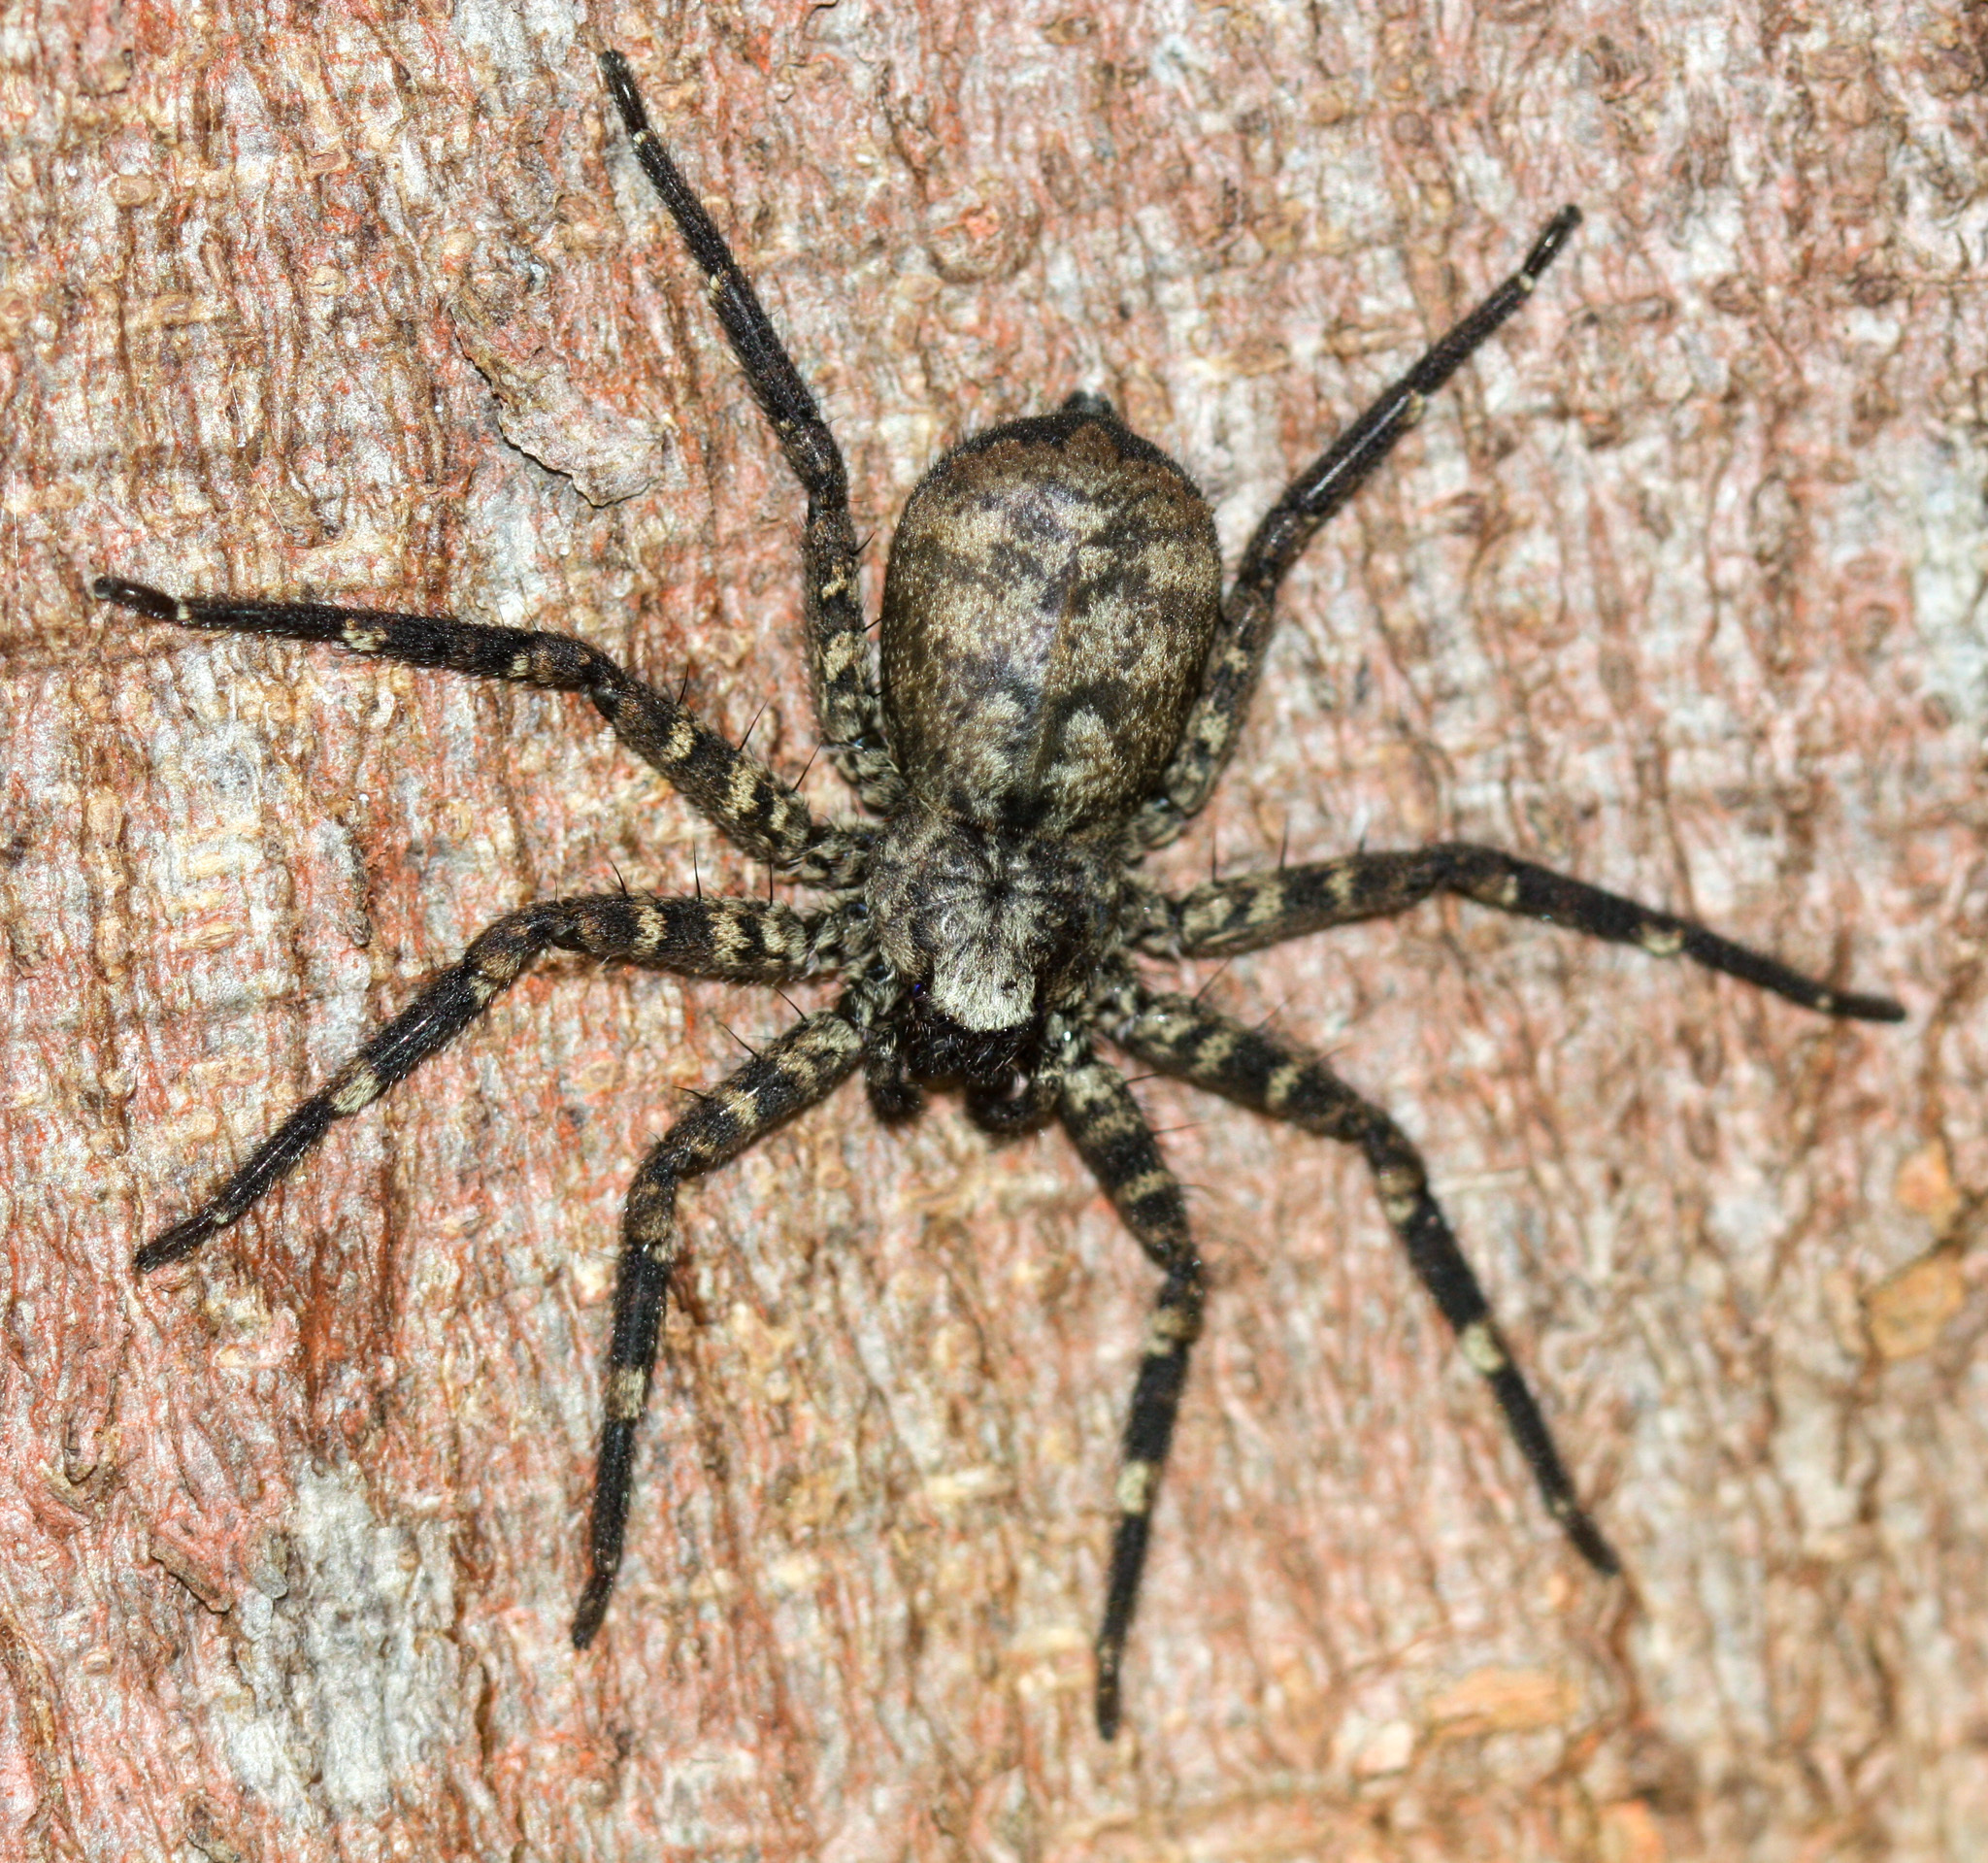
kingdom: Animalia
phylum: Arthropoda
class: Arachnida
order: Araneae
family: Selenopidae
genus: Selenops
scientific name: Selenops mexicanus
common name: Wall crab spiders
